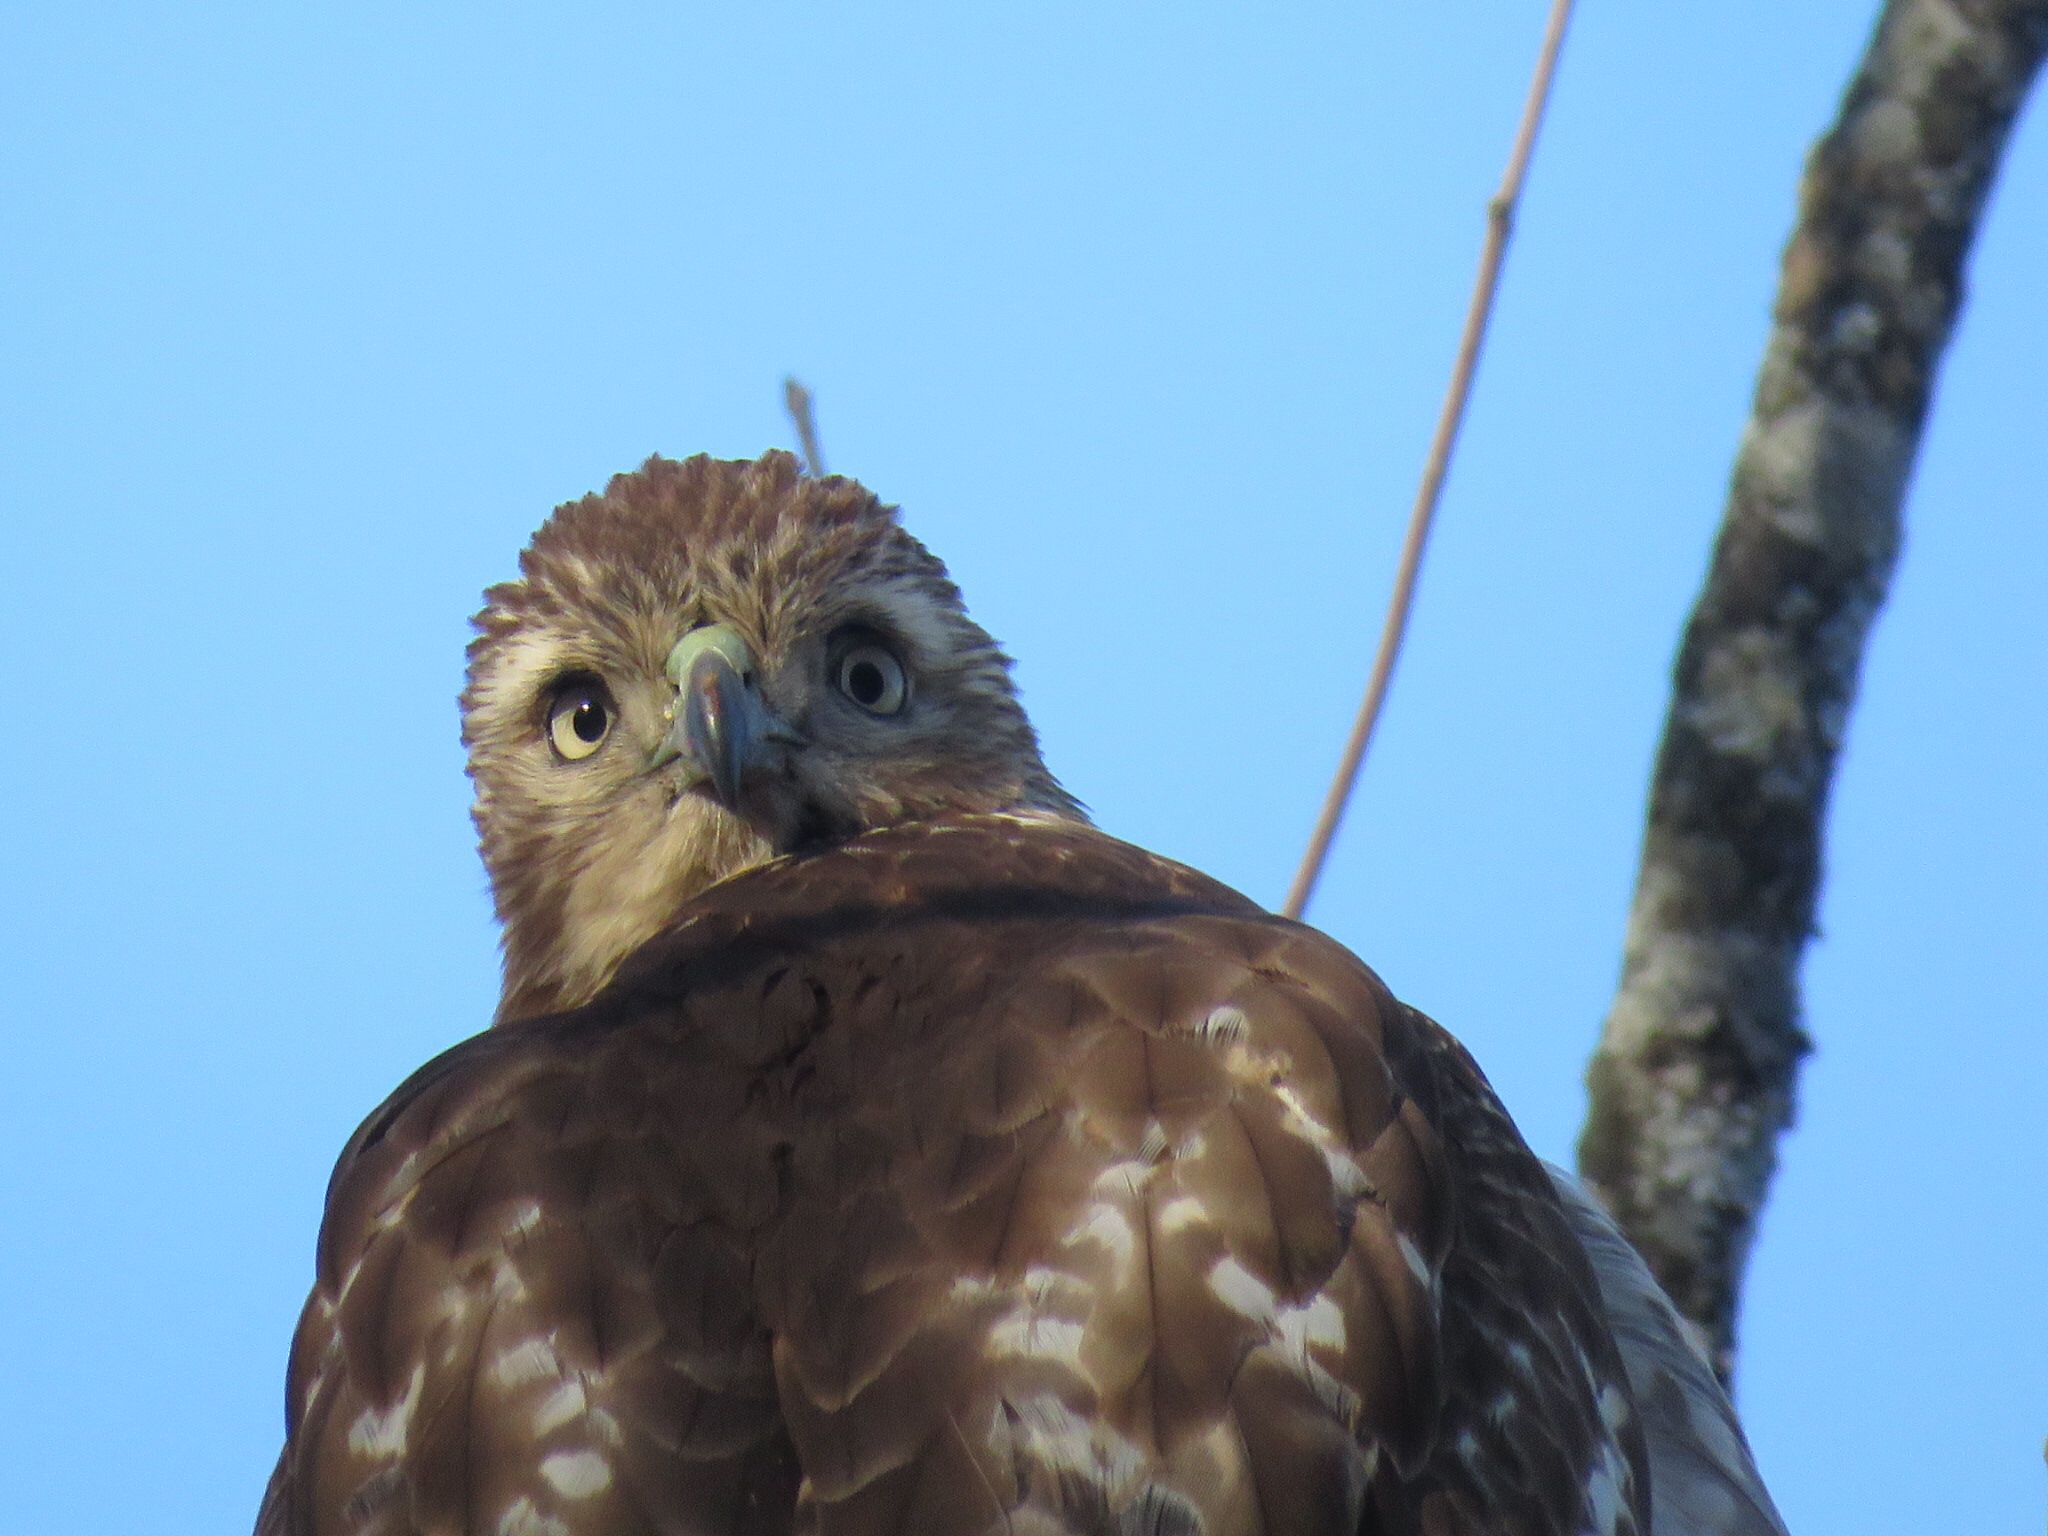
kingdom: Animalia
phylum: Chordata
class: Aves
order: Accipitriformes
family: Accipitridae
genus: Buteo
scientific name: Buteo jamaicensis
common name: Red-tailed hawk
